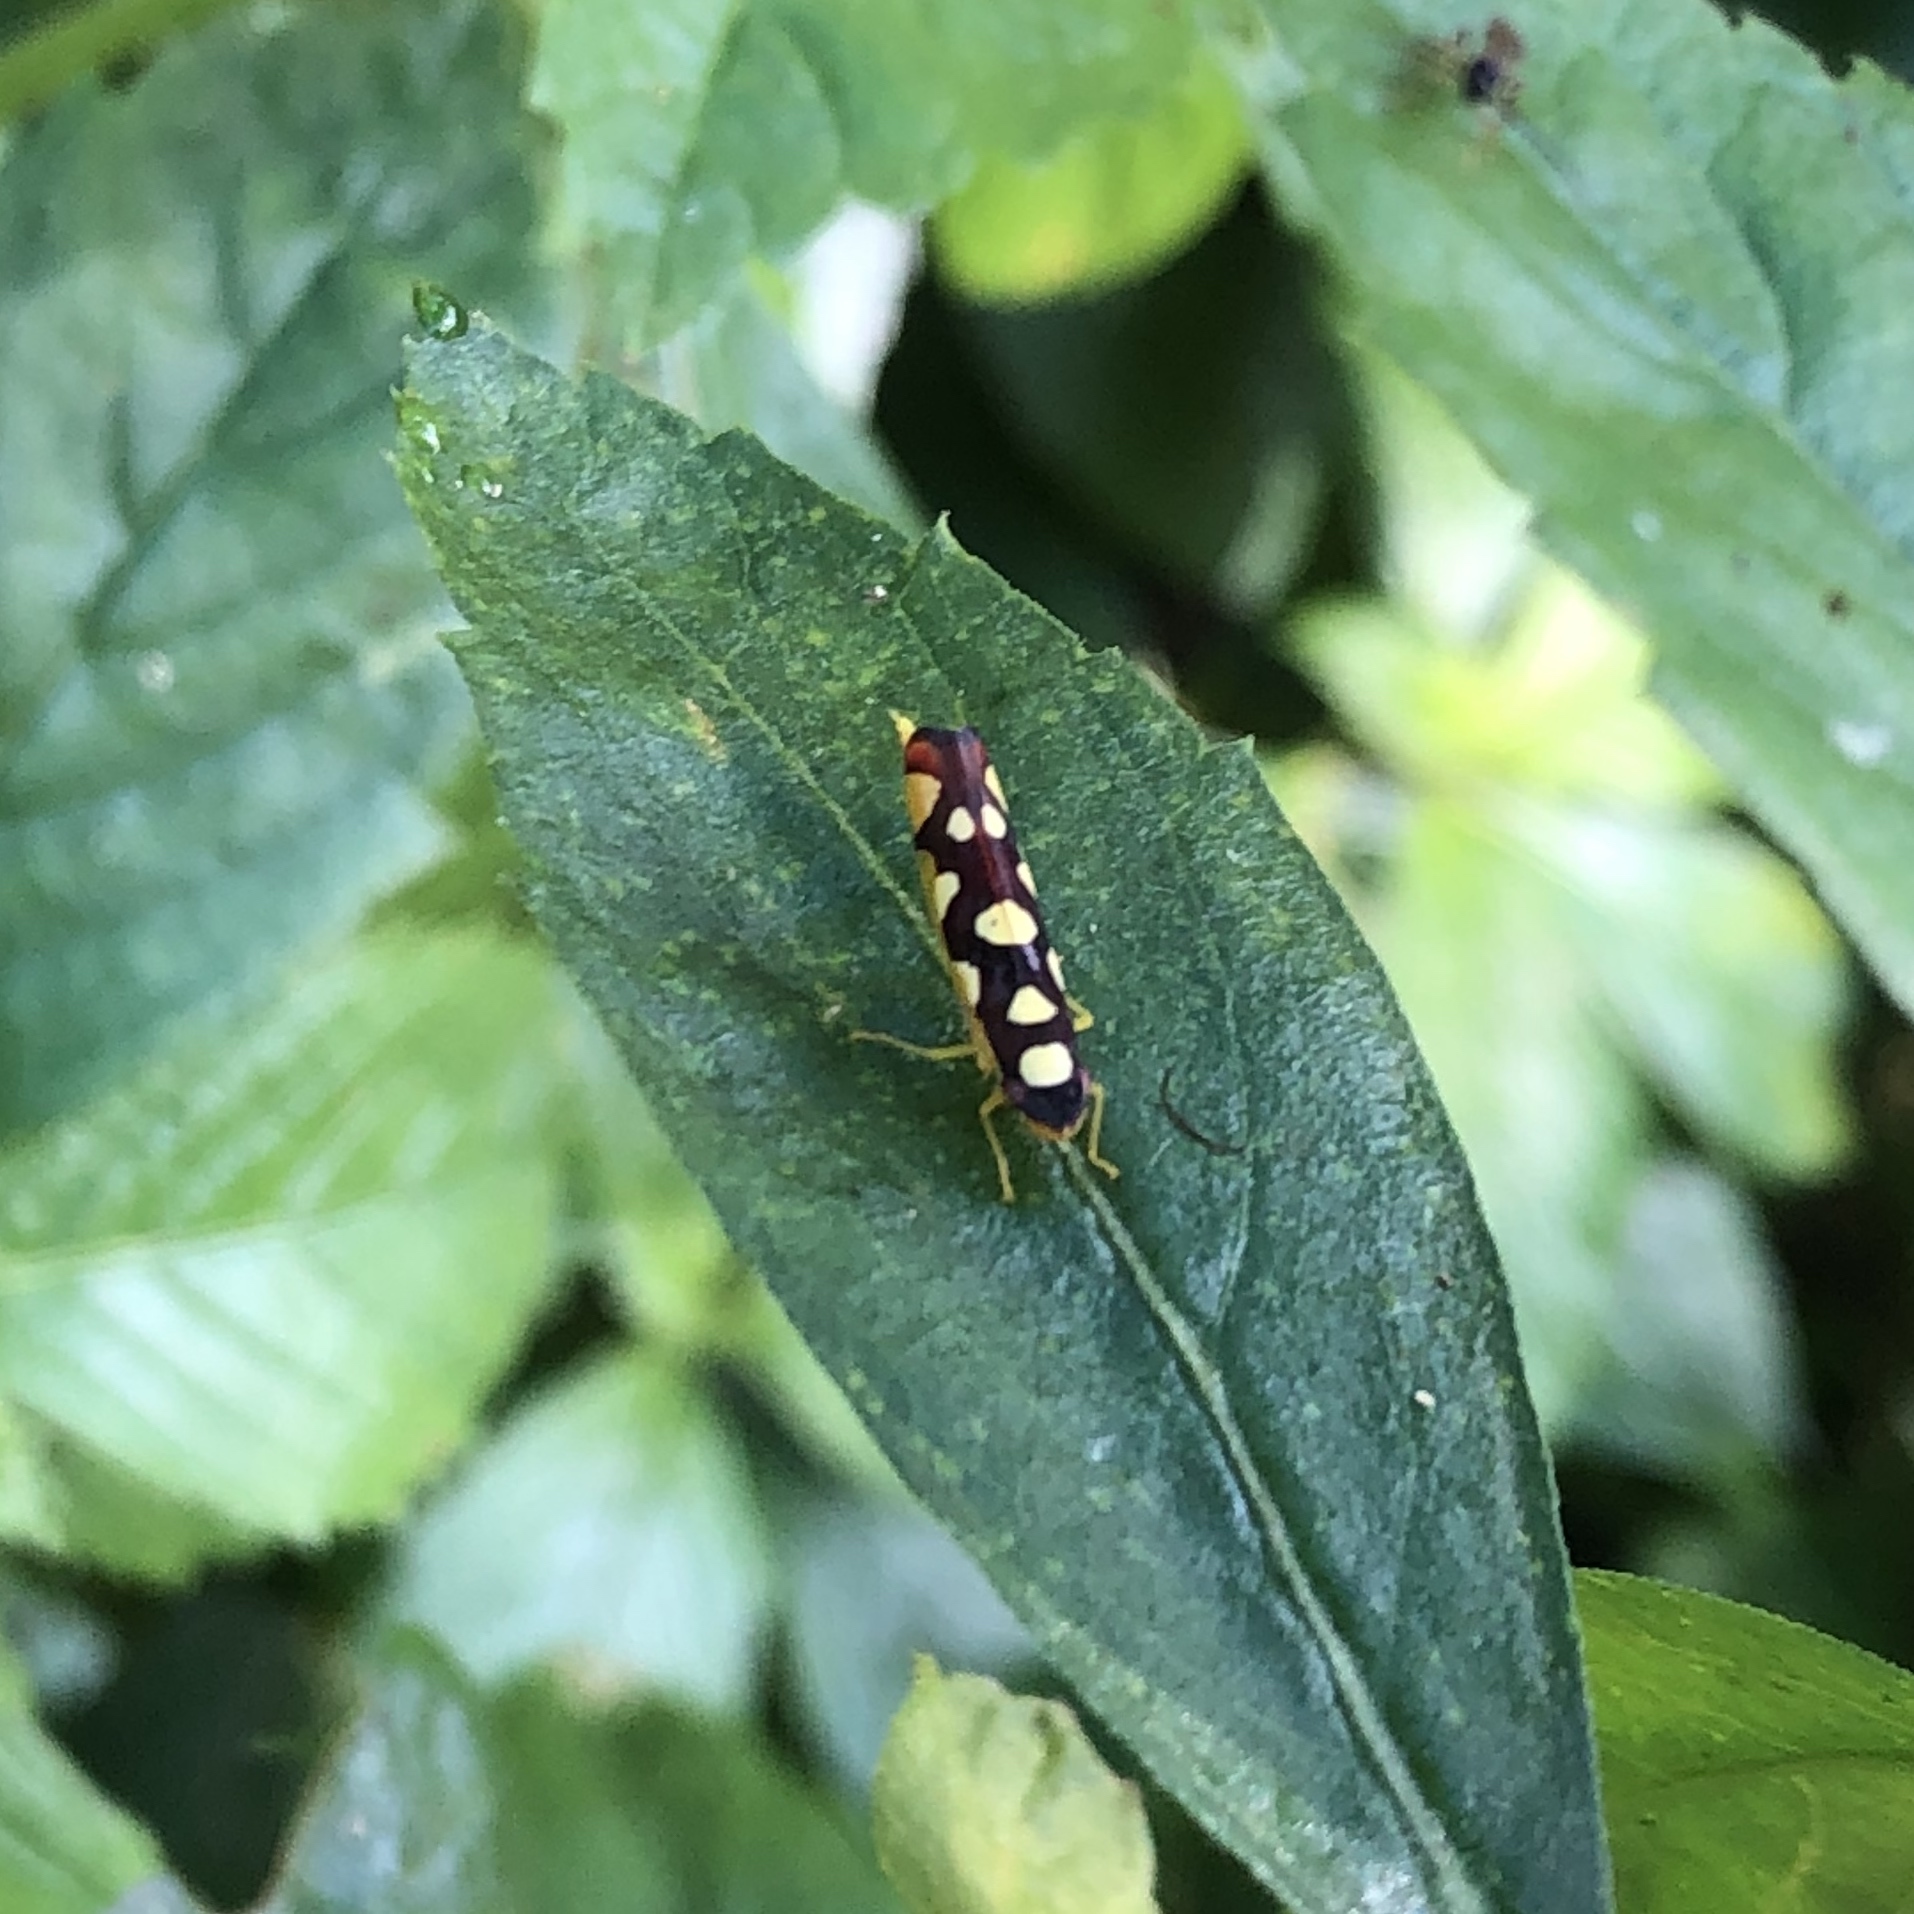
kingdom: Animalia
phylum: Arthropoda
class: Insecta
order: Hemiptera
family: Cicadellidae
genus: Baleja
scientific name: Baleja flavoguttata
